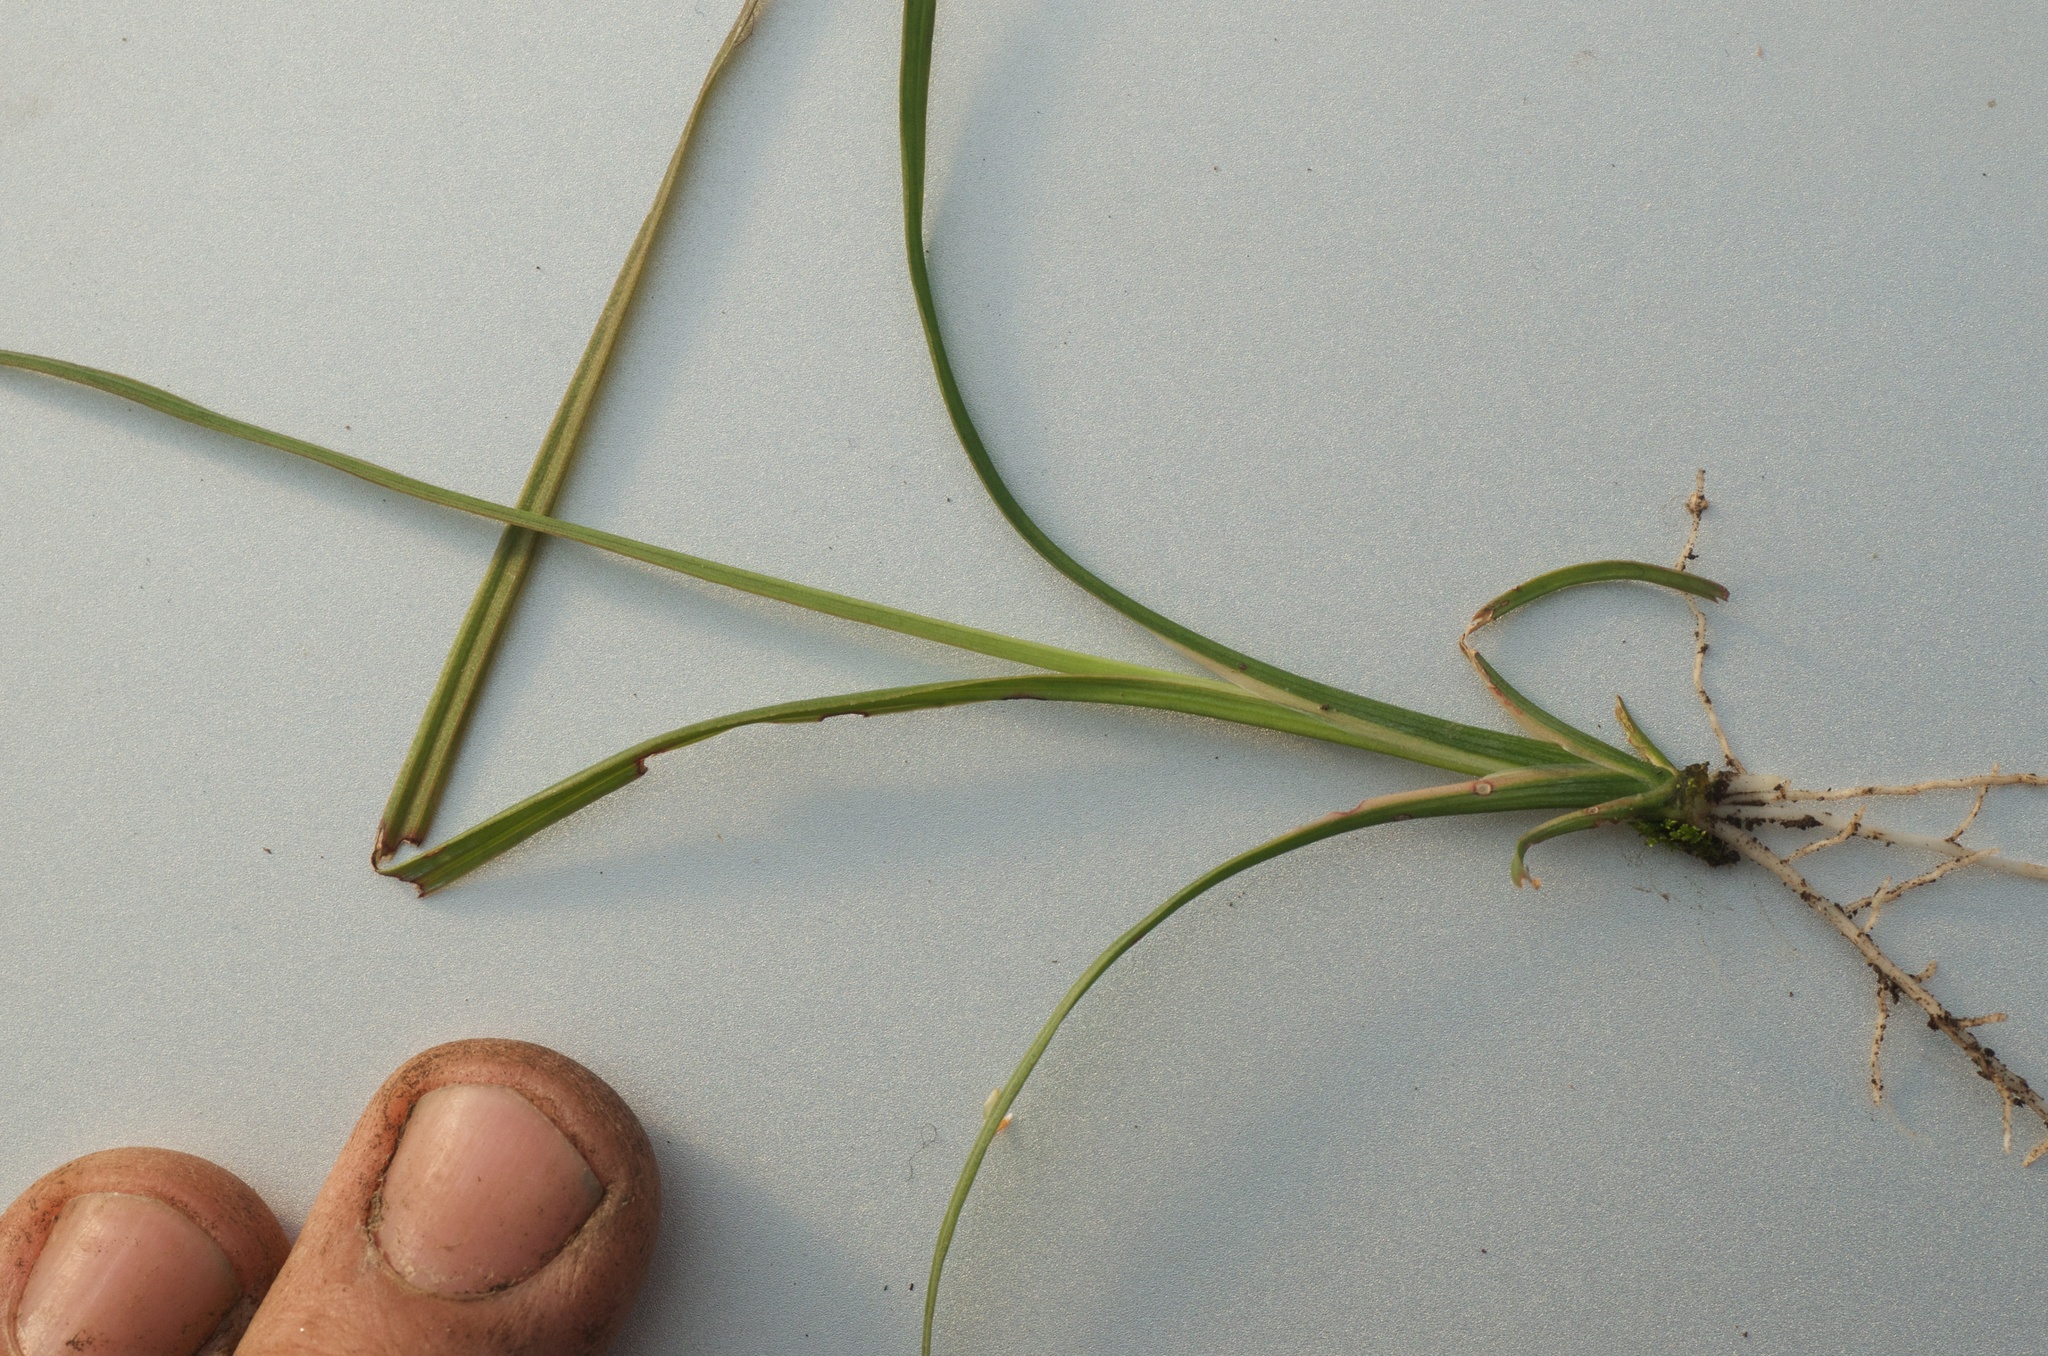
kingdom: Plantae
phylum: Tracheophyta
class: Liliopsida
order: Asparagales
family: Asparagaceae
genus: Cordyline
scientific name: Cordyline australis
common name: Cabbage-palm
